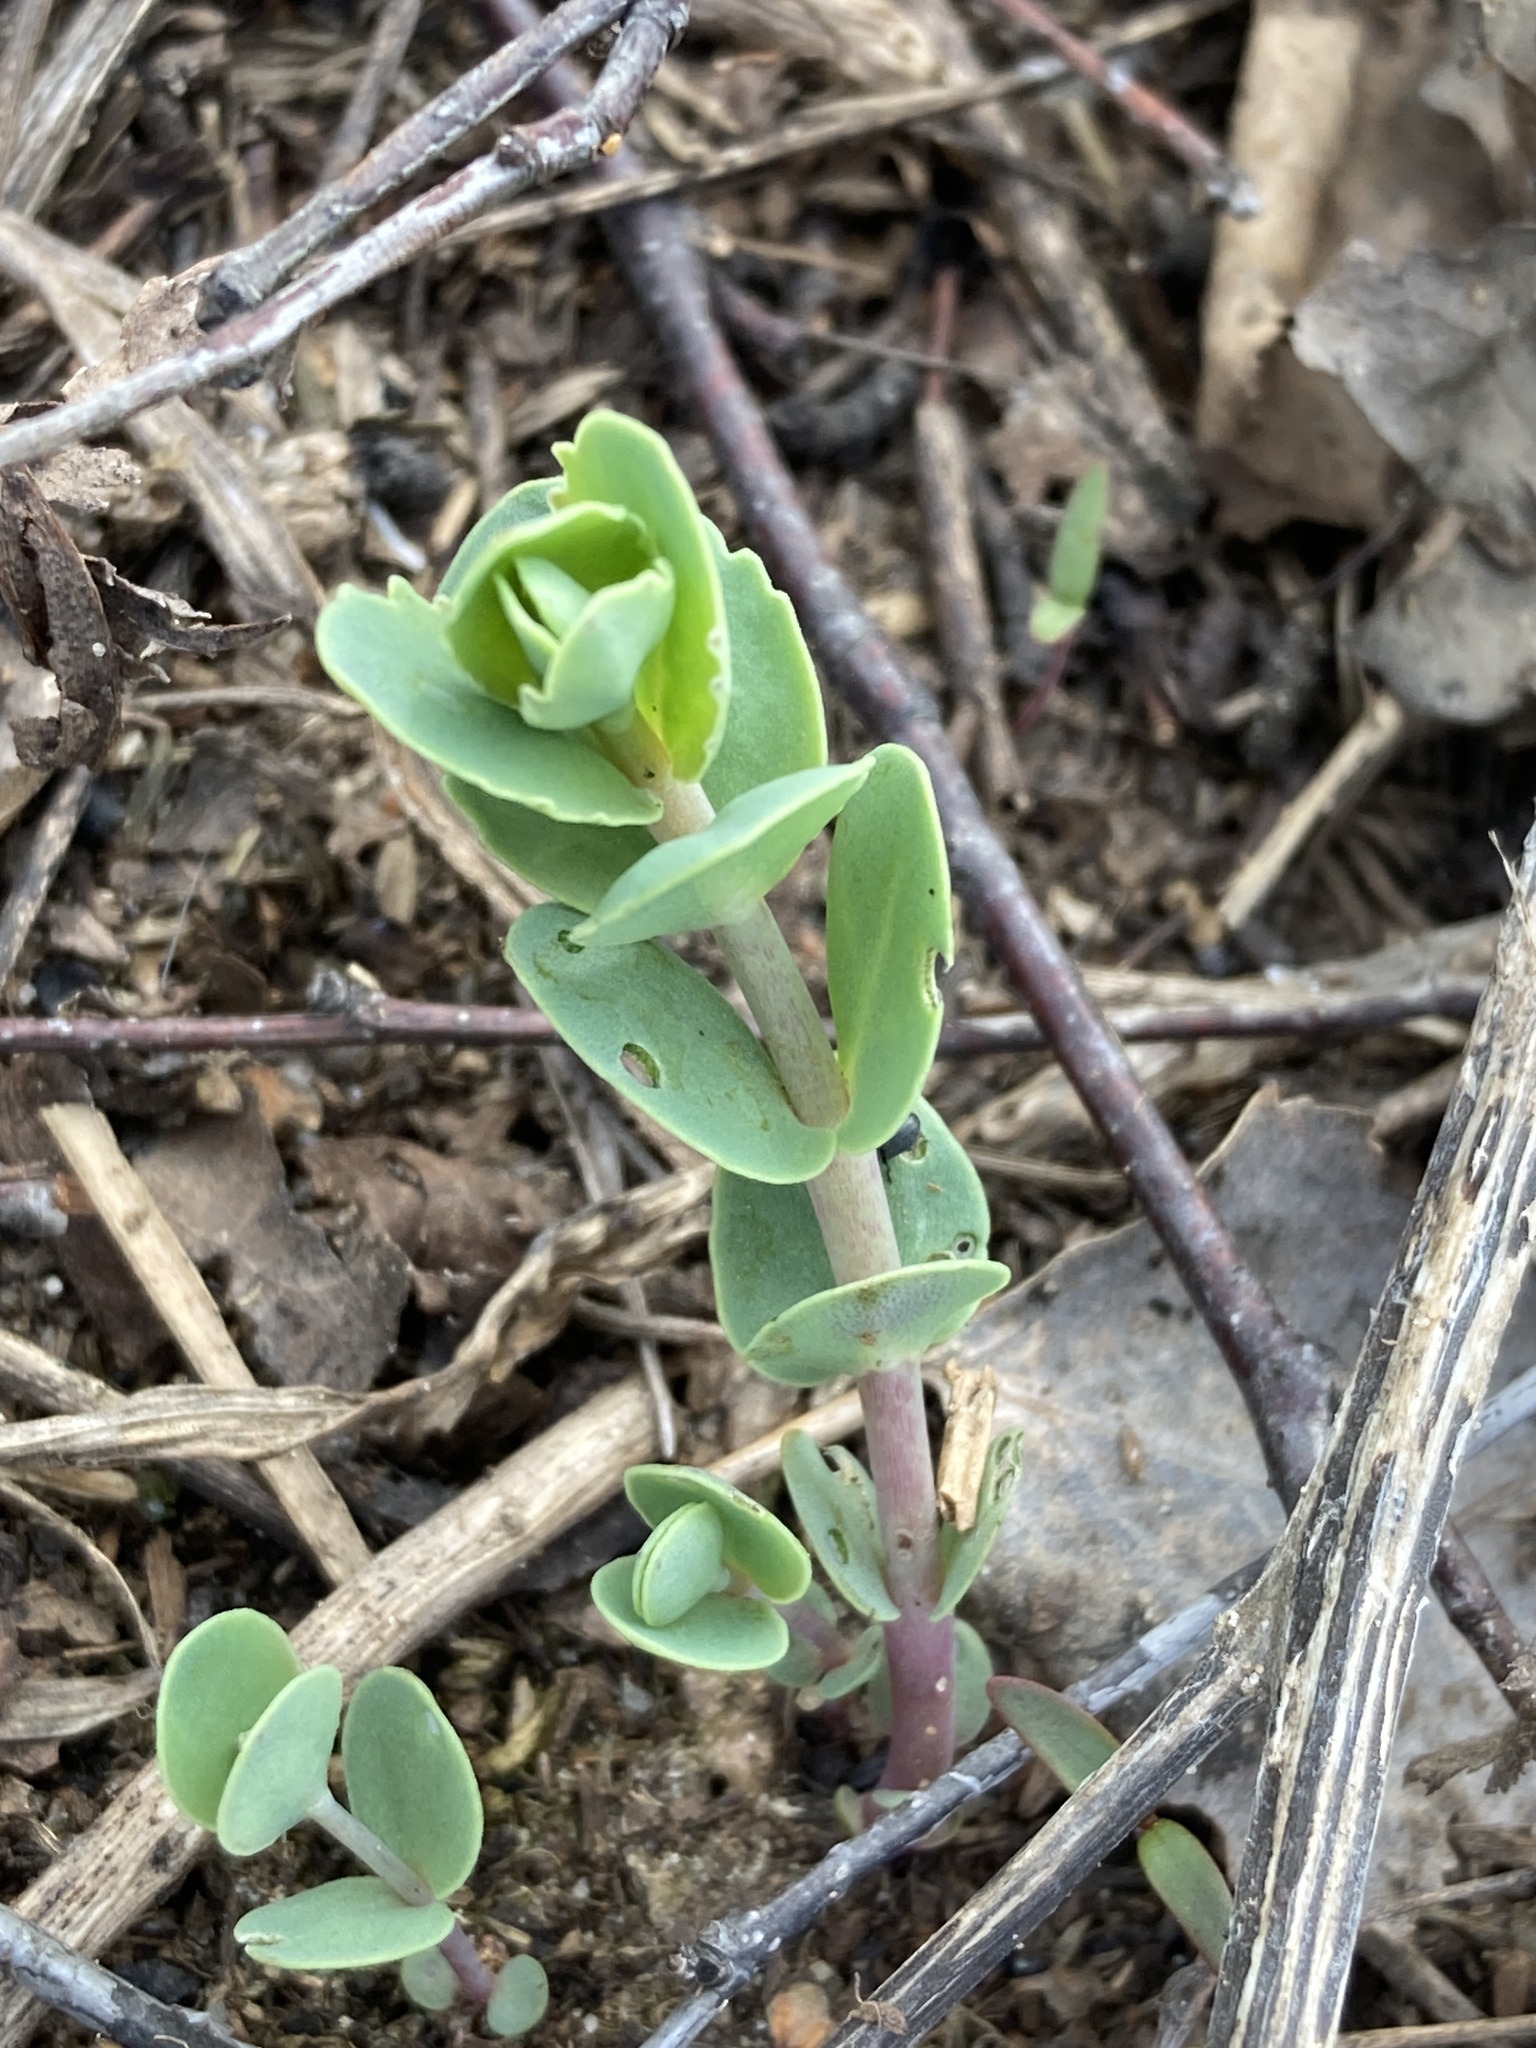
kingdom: Plantae
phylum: Tracheophyta
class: Magnoliopsida
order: Saxifragales
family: Crassulaceae
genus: Hylotelephium
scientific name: Hylotelephium maximum
